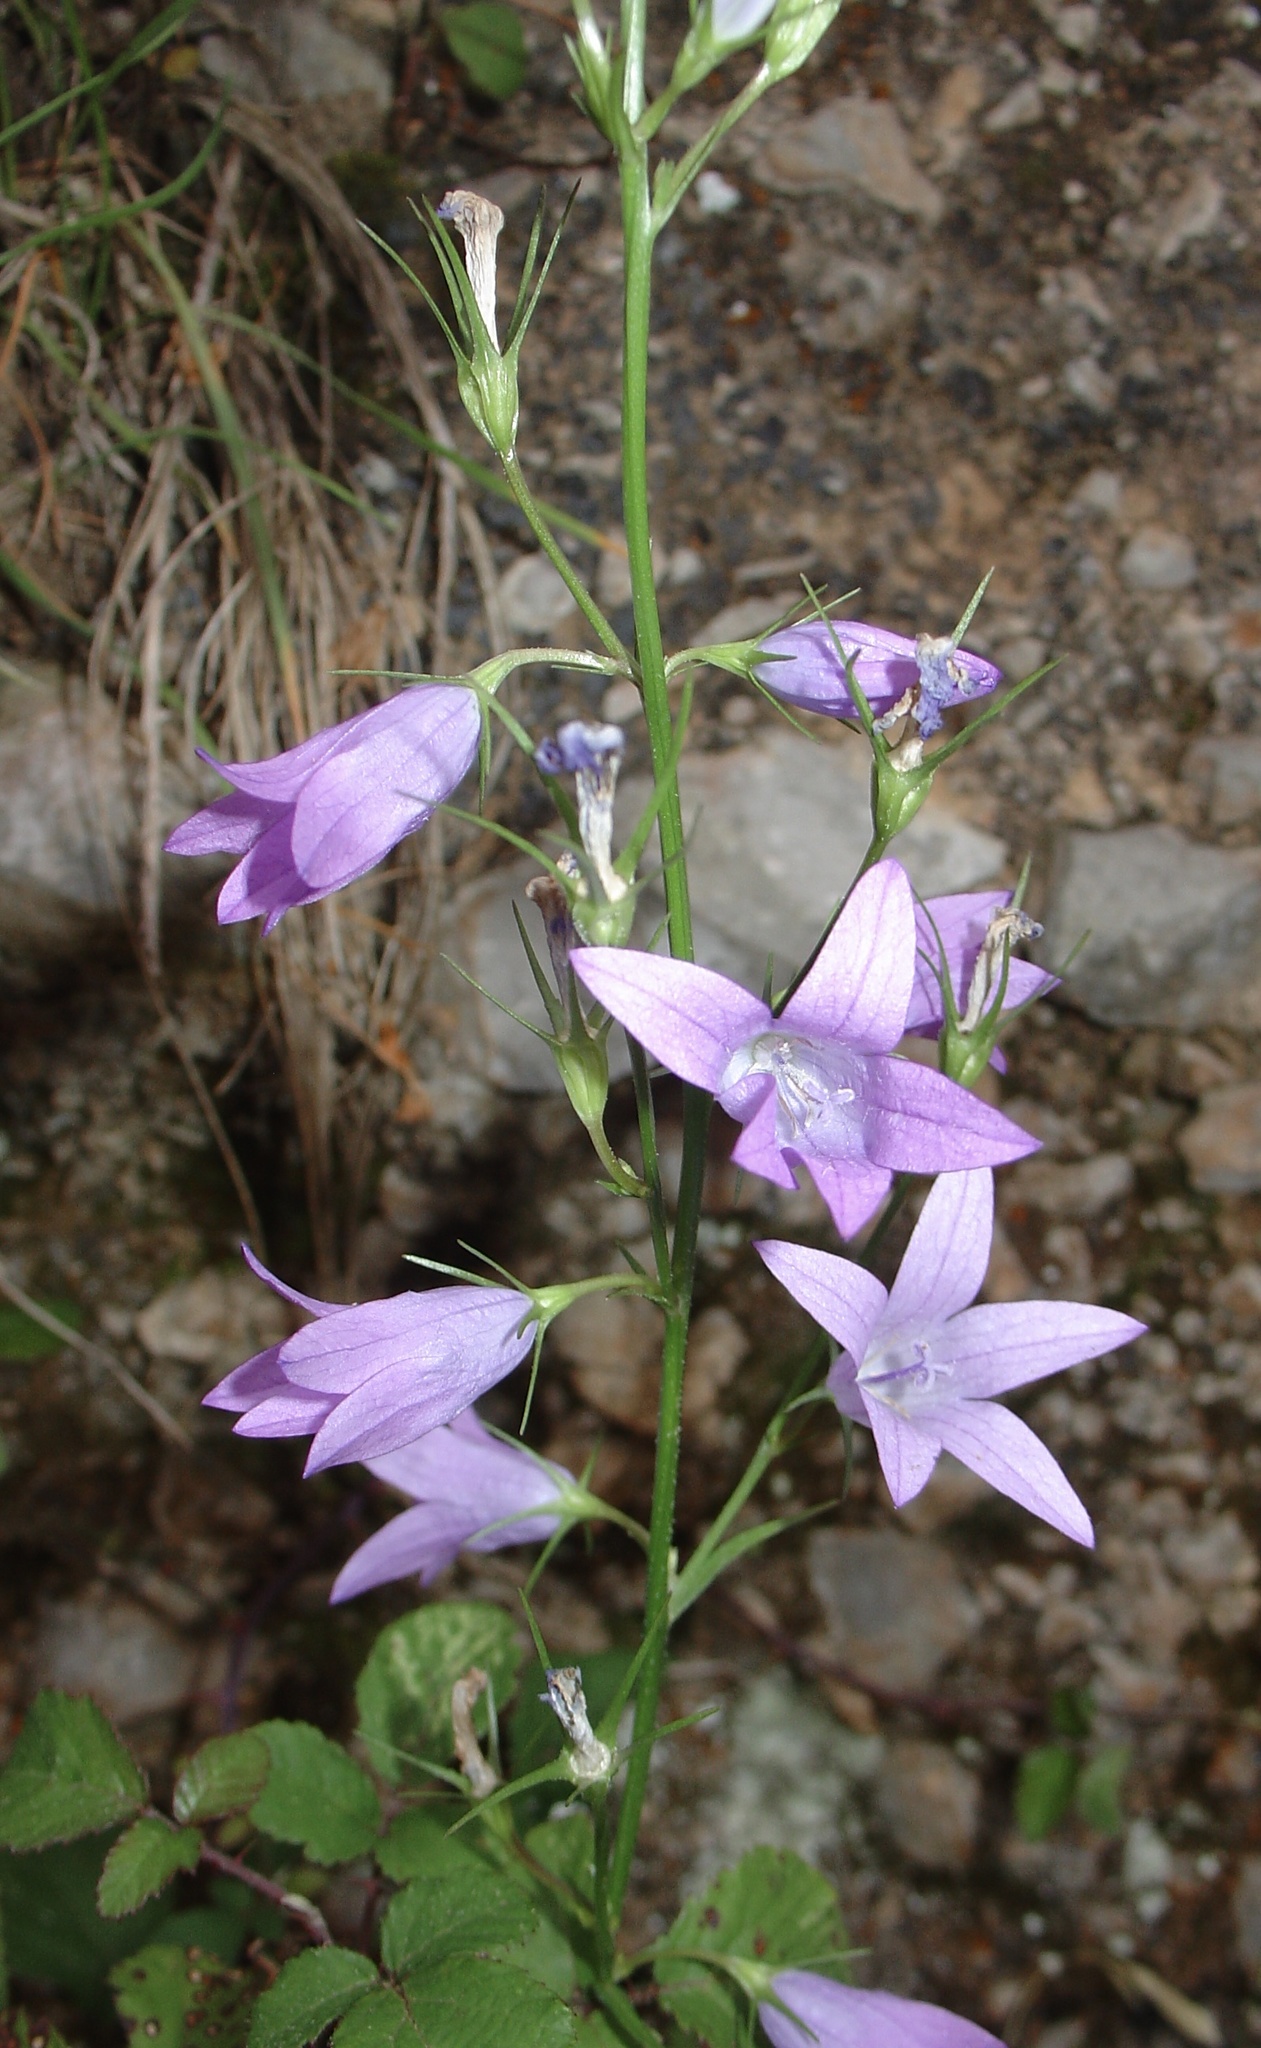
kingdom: Plantae
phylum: Tracheophyta
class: Magnoliopsida
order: Asterales
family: Campanulaceae
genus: Campanula
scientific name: Campanula rapunculus
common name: Rampion bellflower
